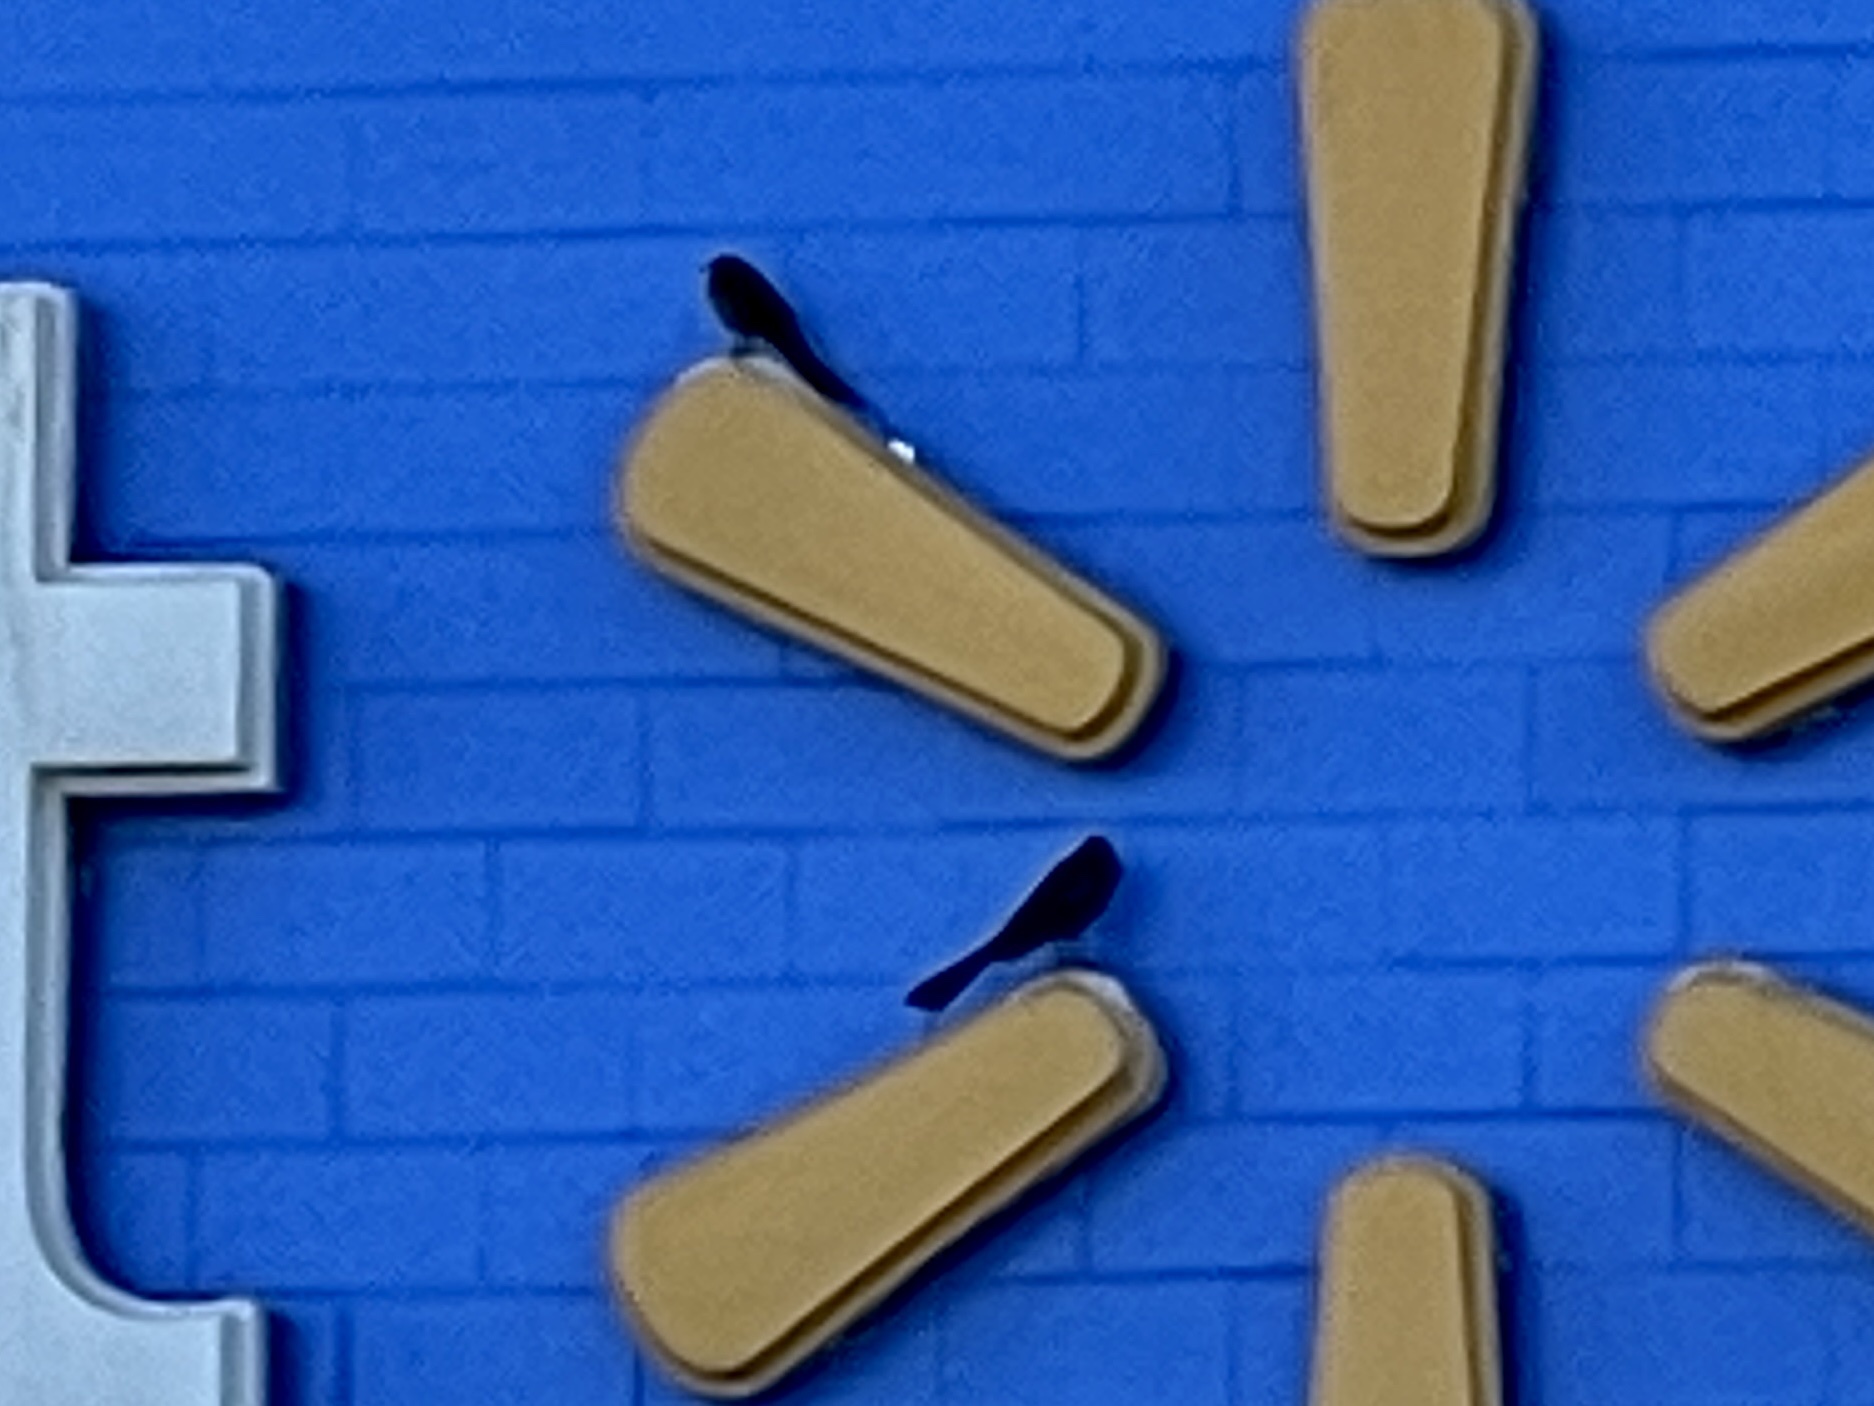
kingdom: Animalia
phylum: Chordata
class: Aves
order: Passeriformes
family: Icteridae
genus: Quiscalus
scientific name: Quiscalus mexicanus
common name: Great-tailed grackle
